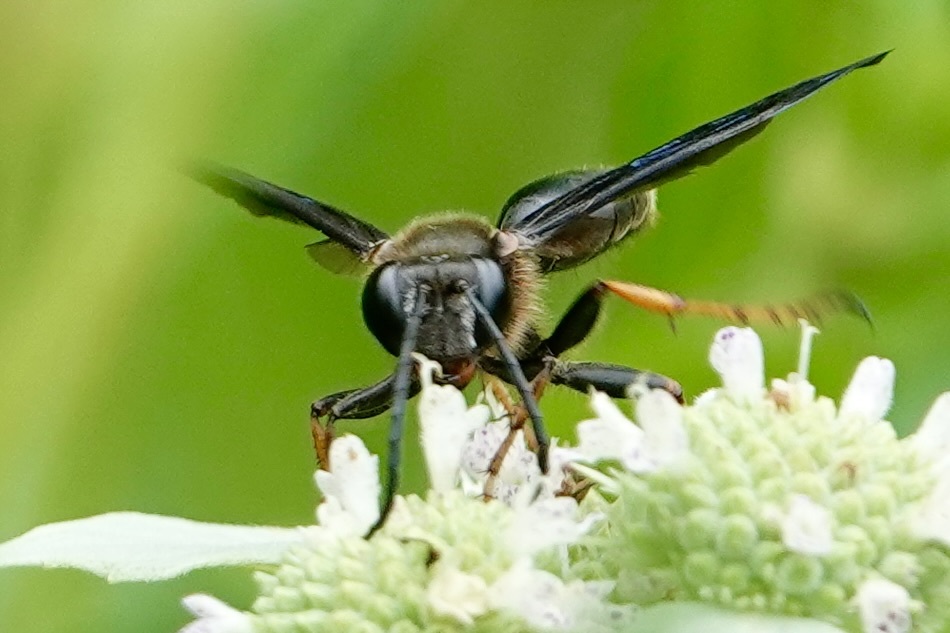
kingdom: Animalia
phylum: Arthropoda
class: Insecta
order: Hymenoptera
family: Sphecidae
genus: Isodontia
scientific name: Isodontia auripes
